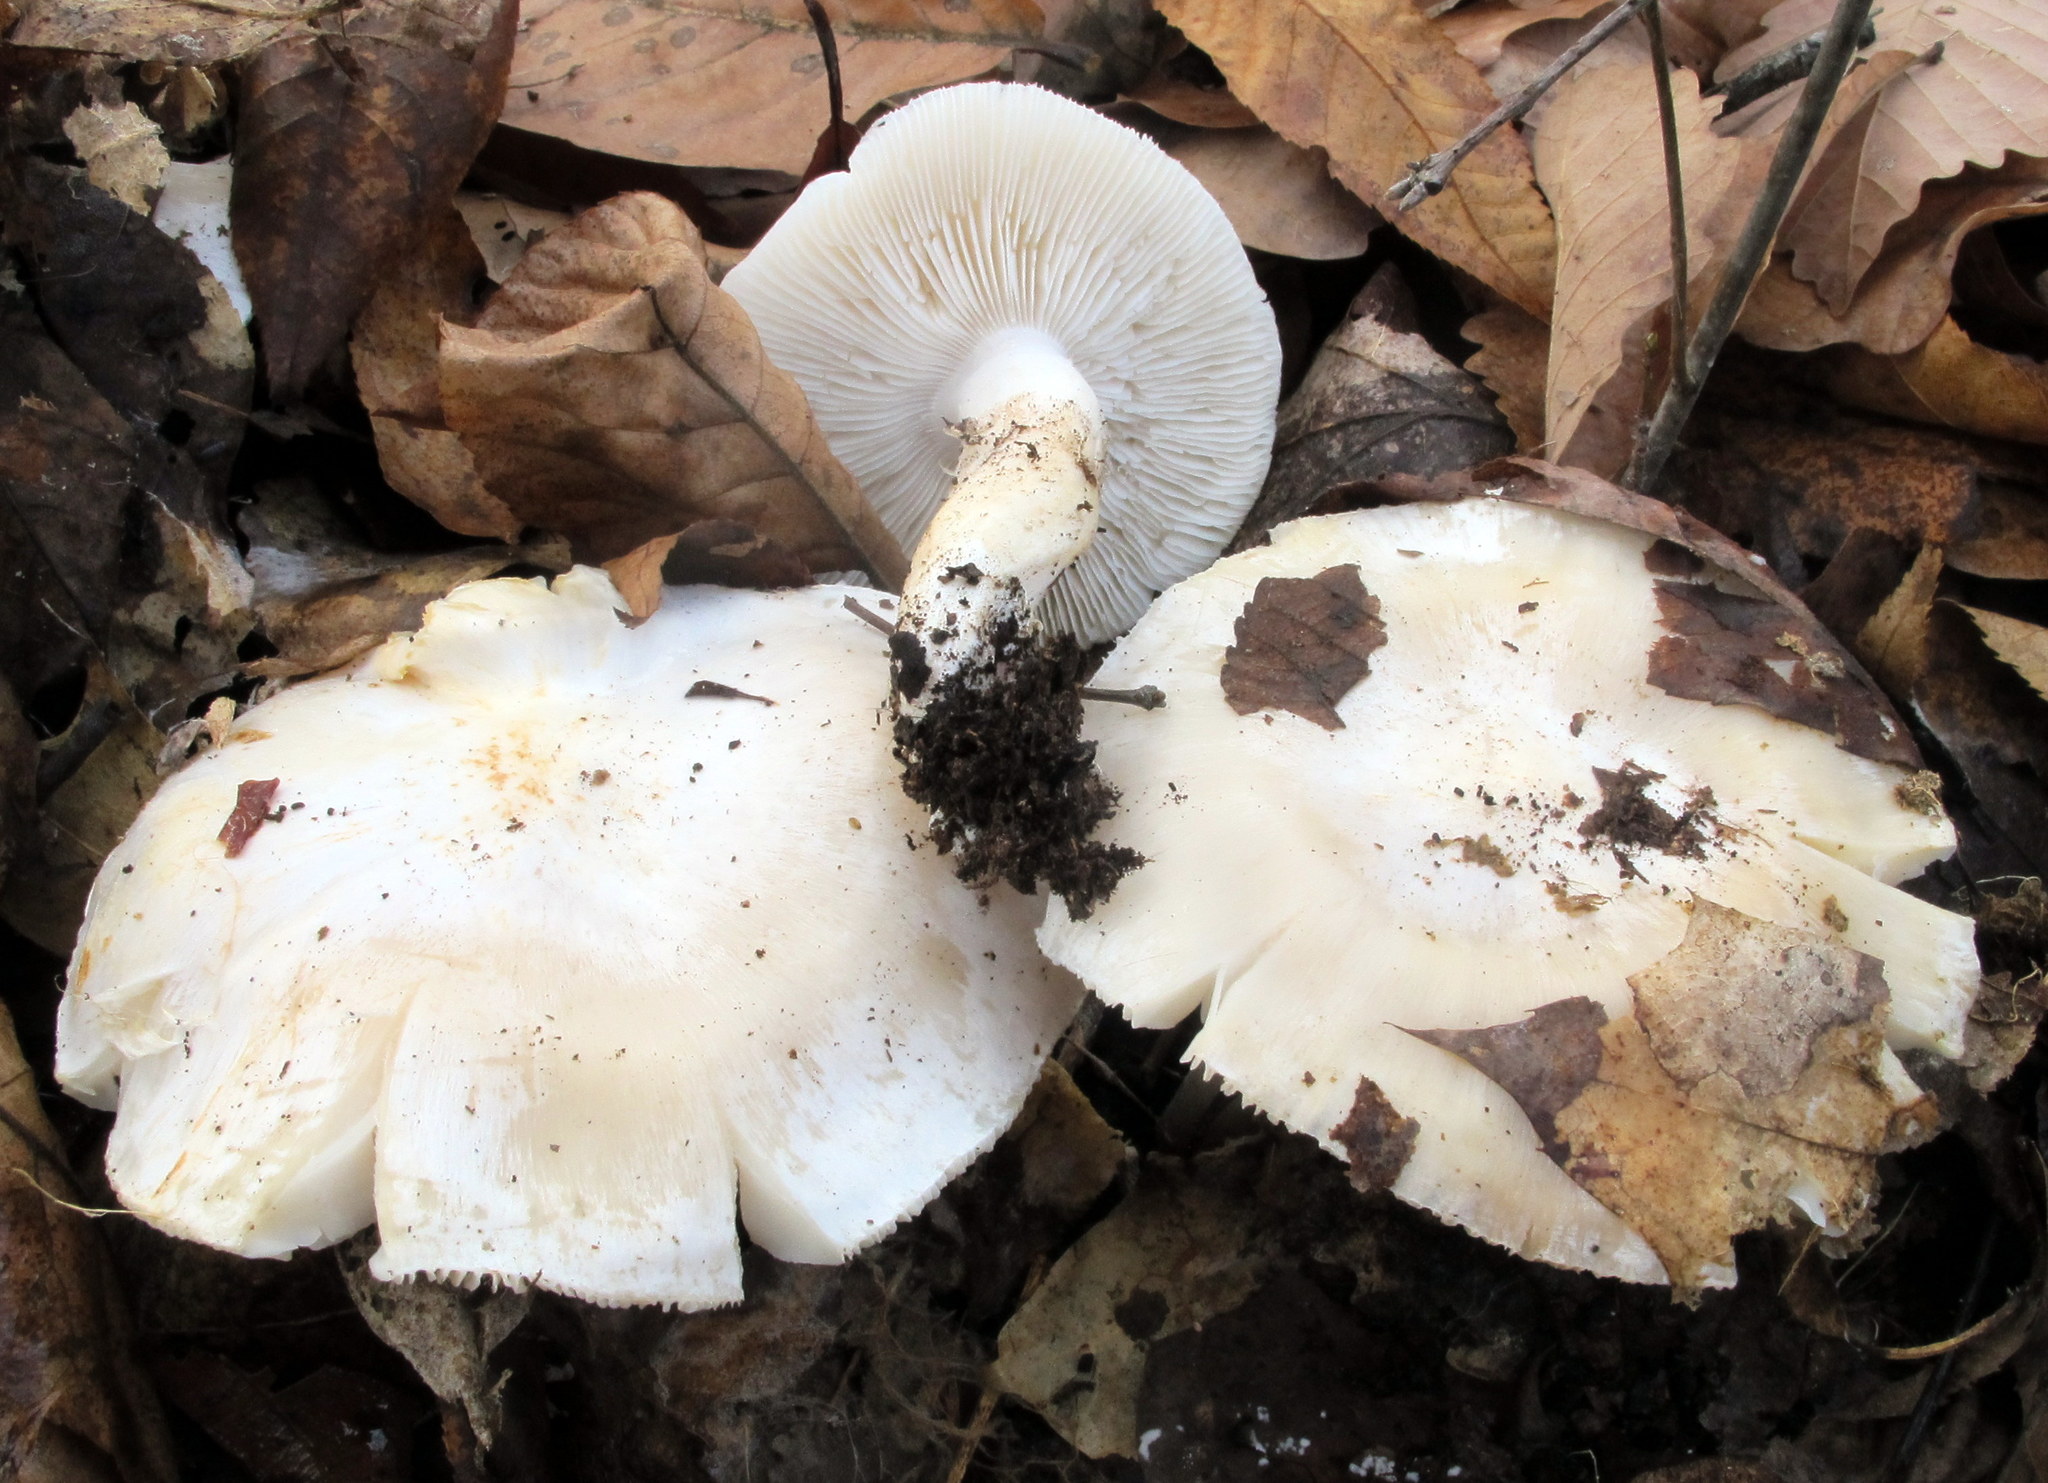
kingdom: Fungi
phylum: Basidiomycota
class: Agaricomycetes
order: Agaricales
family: Tricholomataceae
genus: Tricholoma
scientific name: Tricholoma subresplendens
